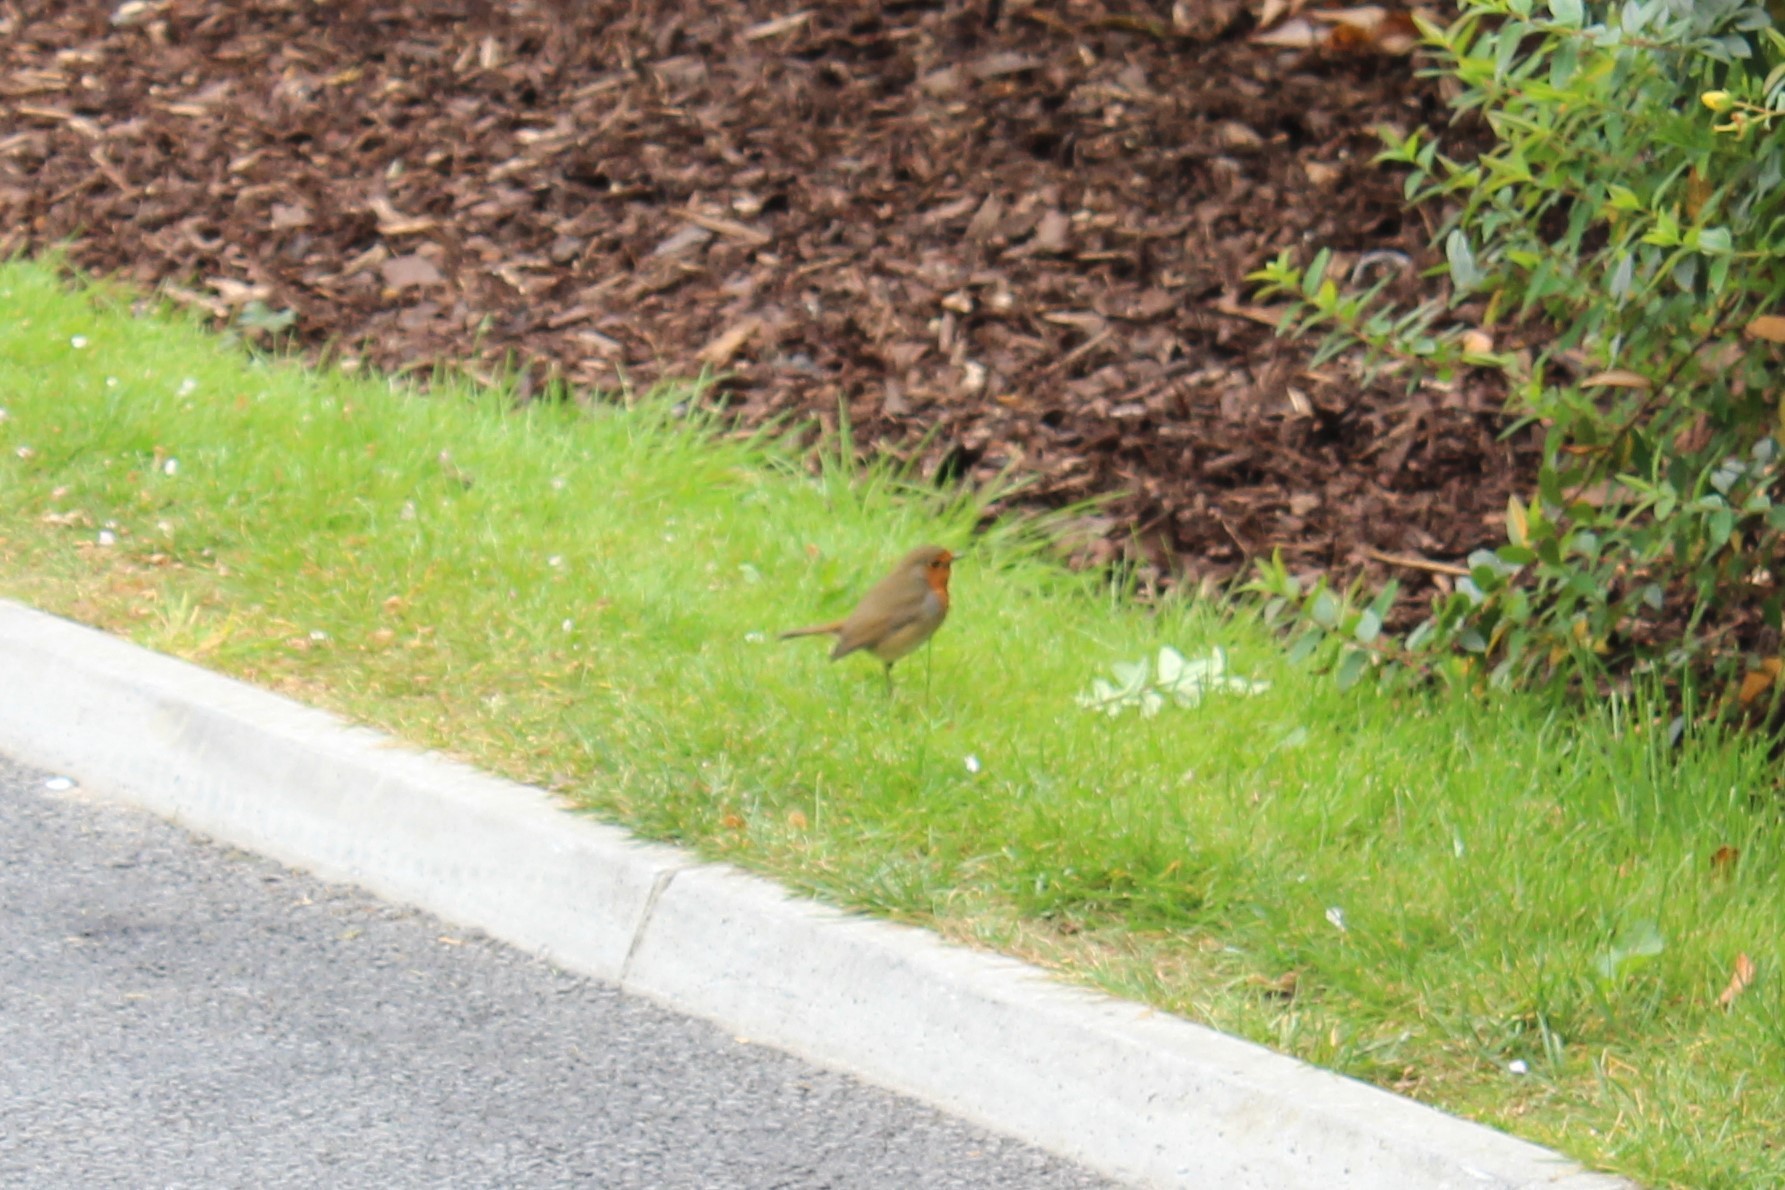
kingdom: Animalia
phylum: Chordata
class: Aves
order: Passeriformes
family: Muscicapidae
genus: Erithacus
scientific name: Erithacus rubecula
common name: European robin
